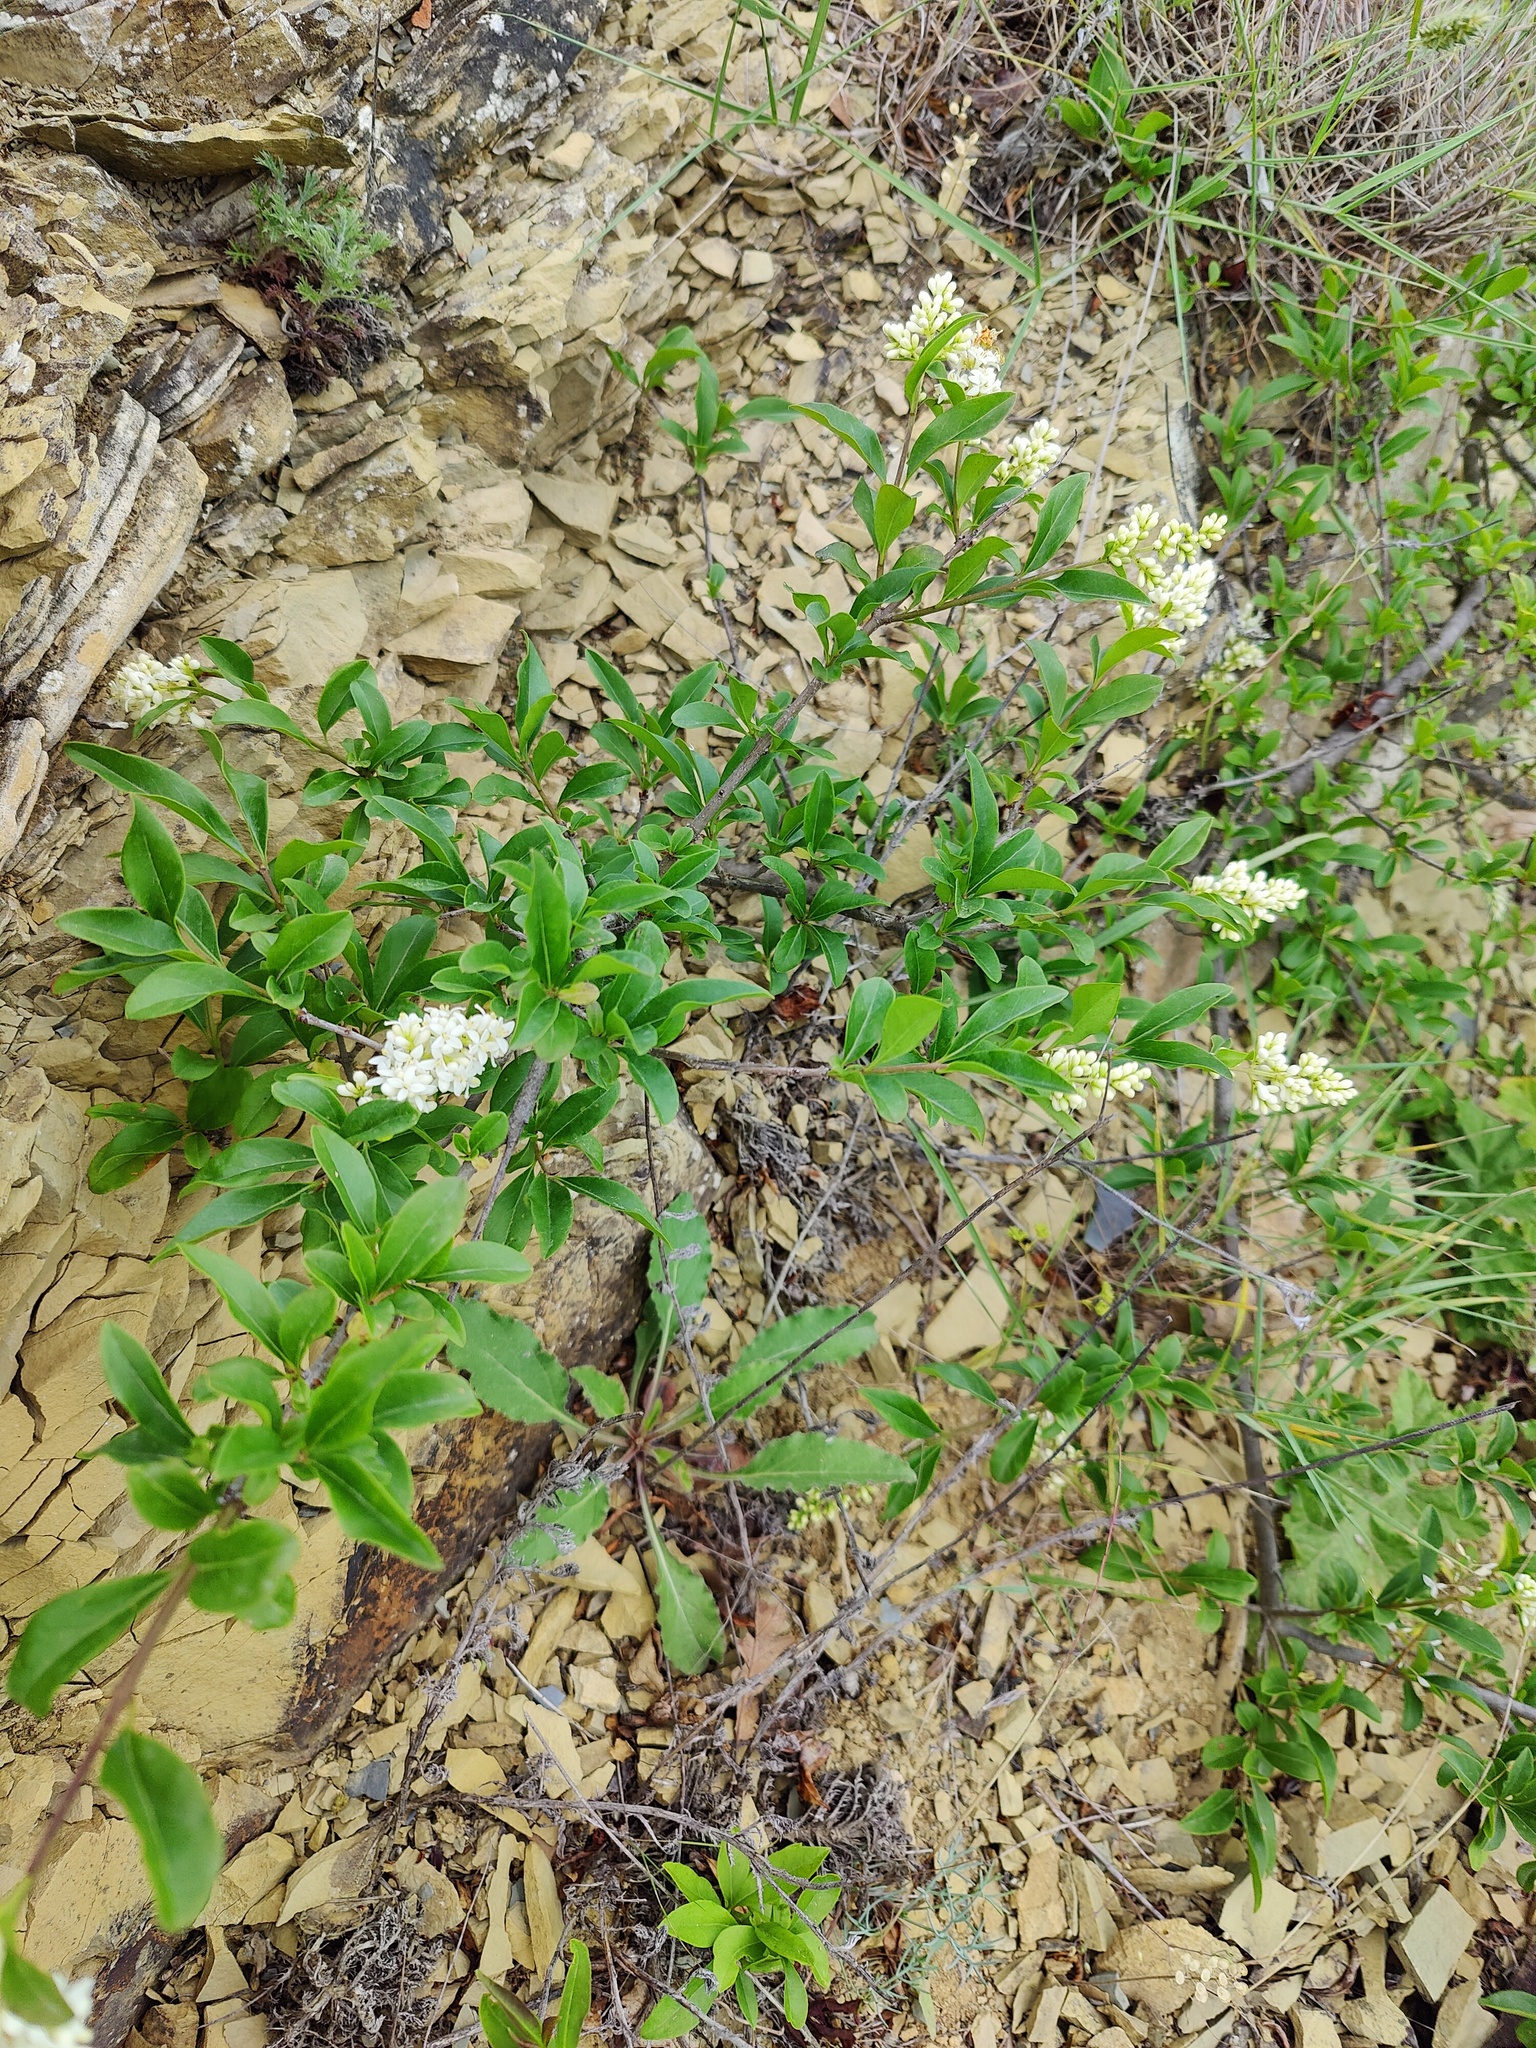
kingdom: Plantae
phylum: Tracheophyta
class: Magnoliopsida
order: Lamiales
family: Oleaceae
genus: Ligustrum
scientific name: Ligustrum vulgare
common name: Wild privet
